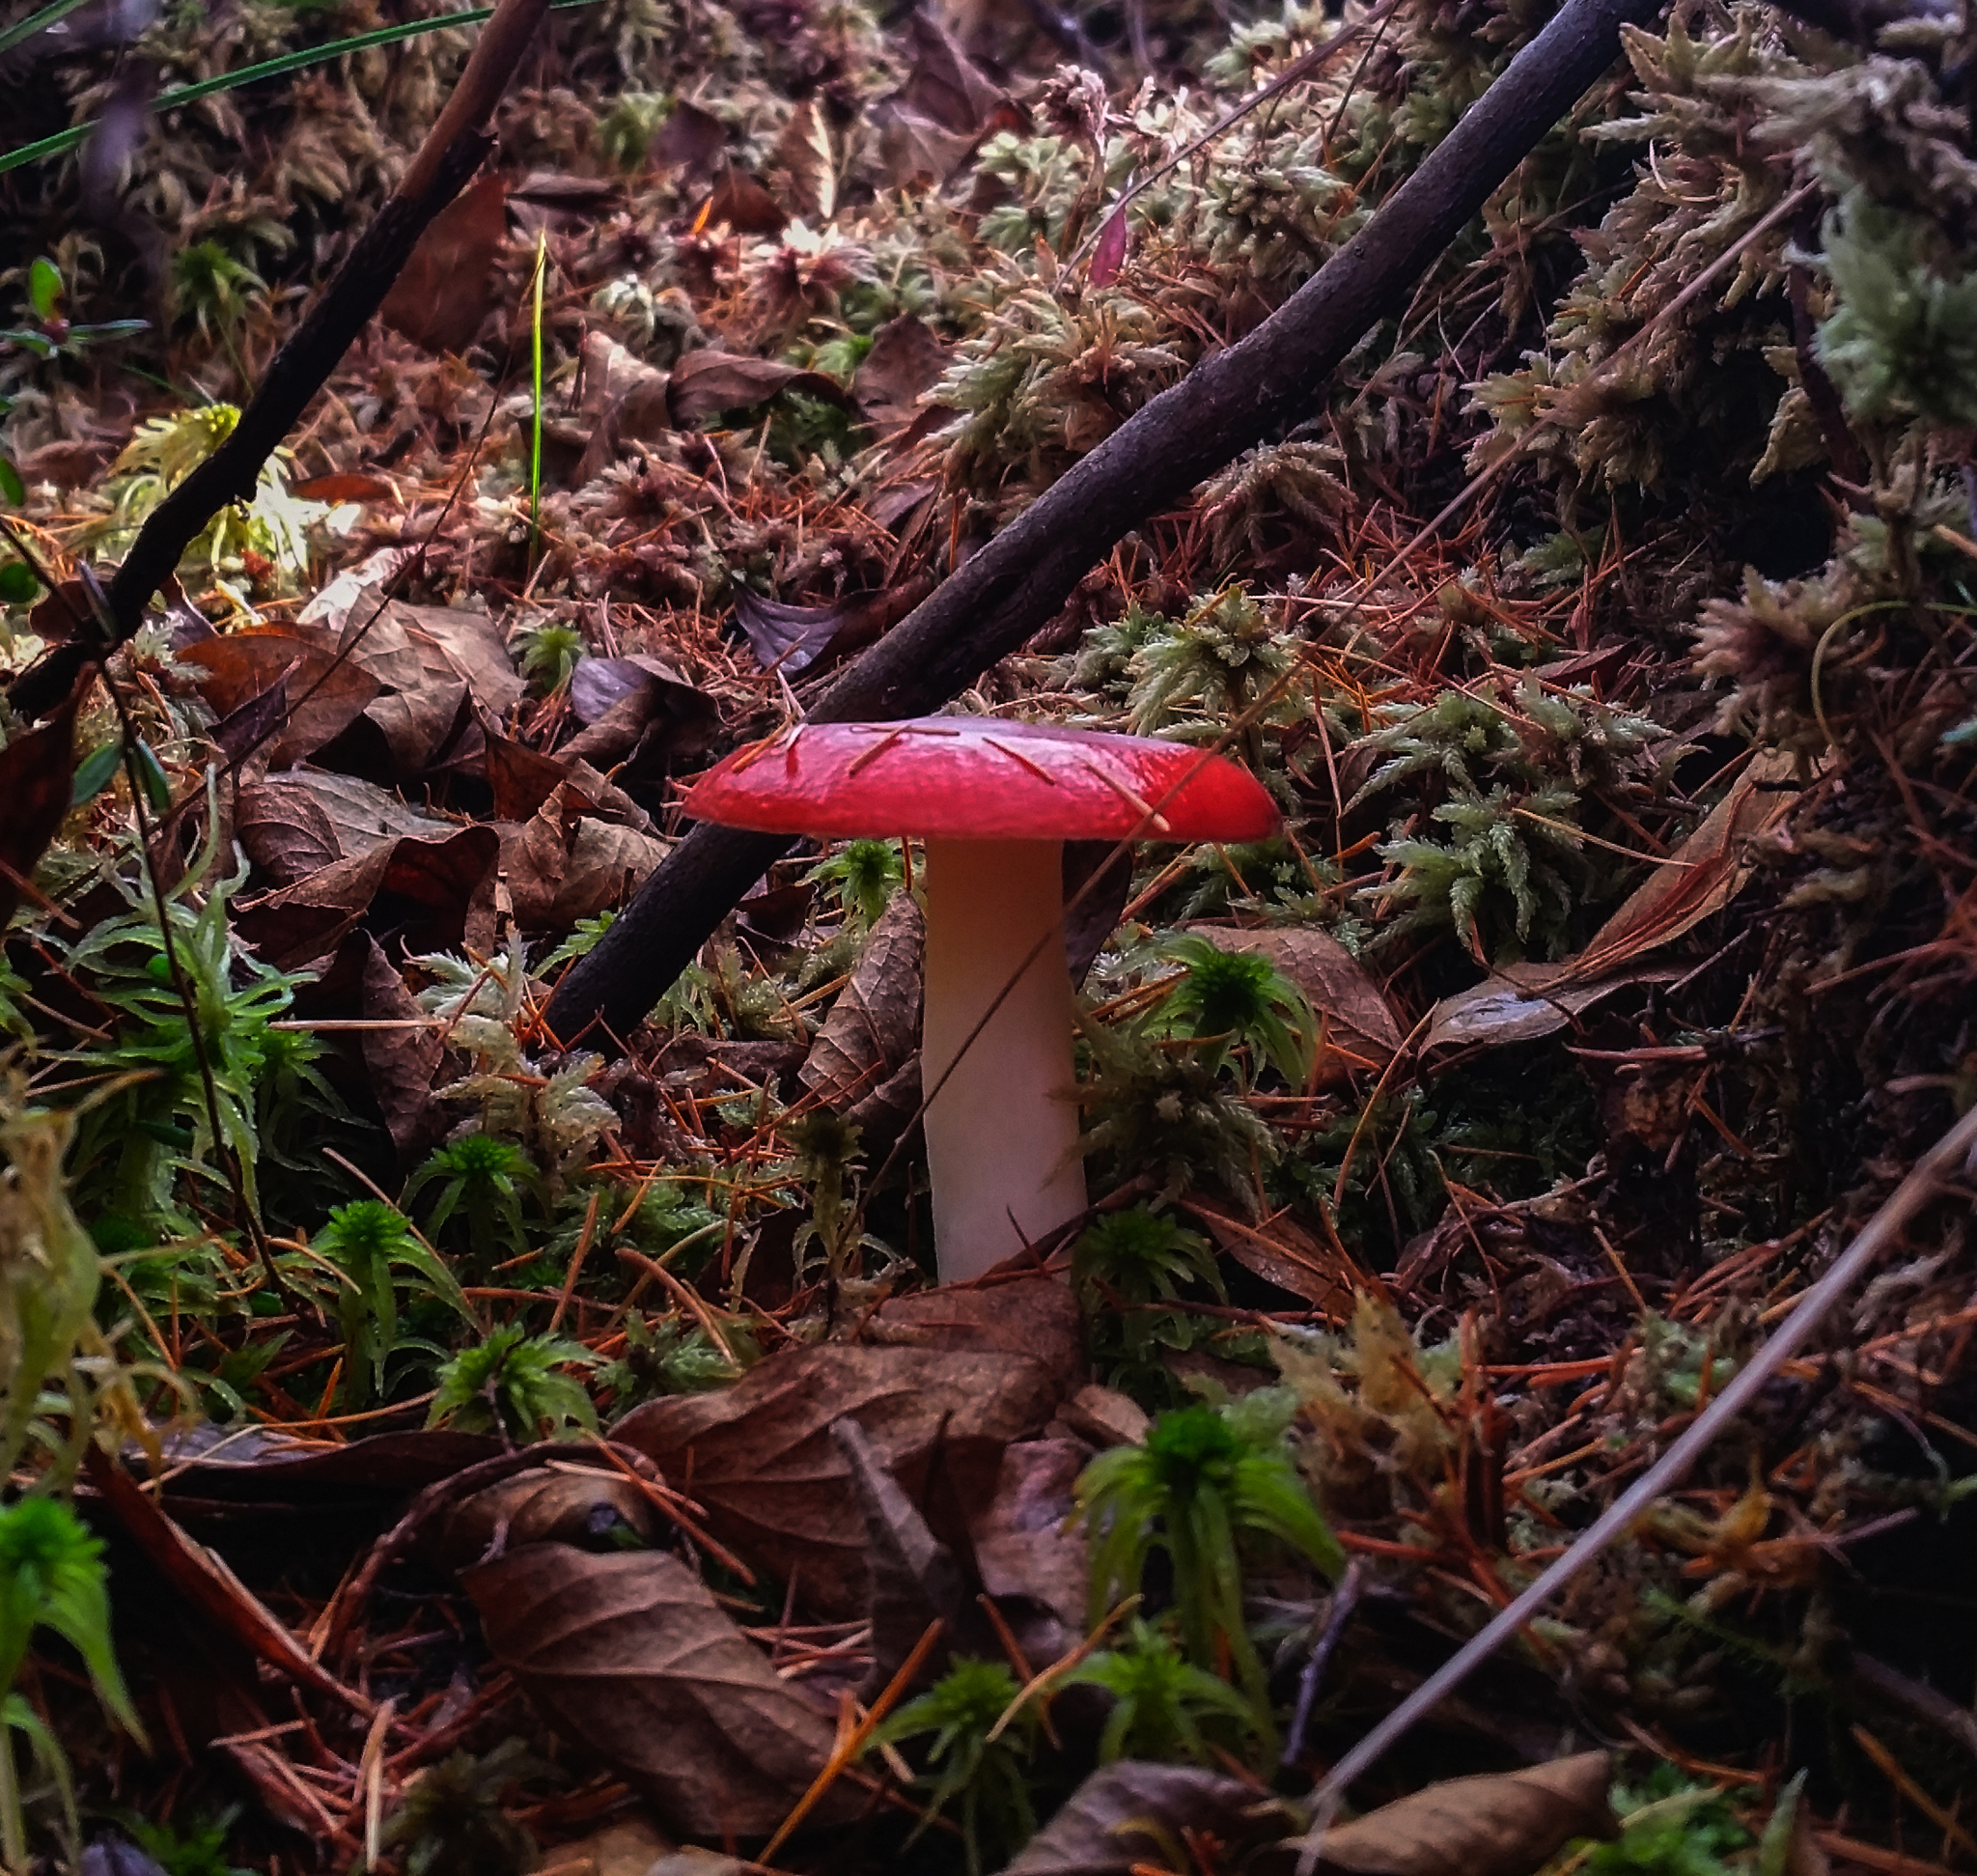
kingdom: Fungi
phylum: Basidiomycota
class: Agaricomycetes
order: Russulales
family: Russulaceae
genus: Russula
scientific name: Russula
